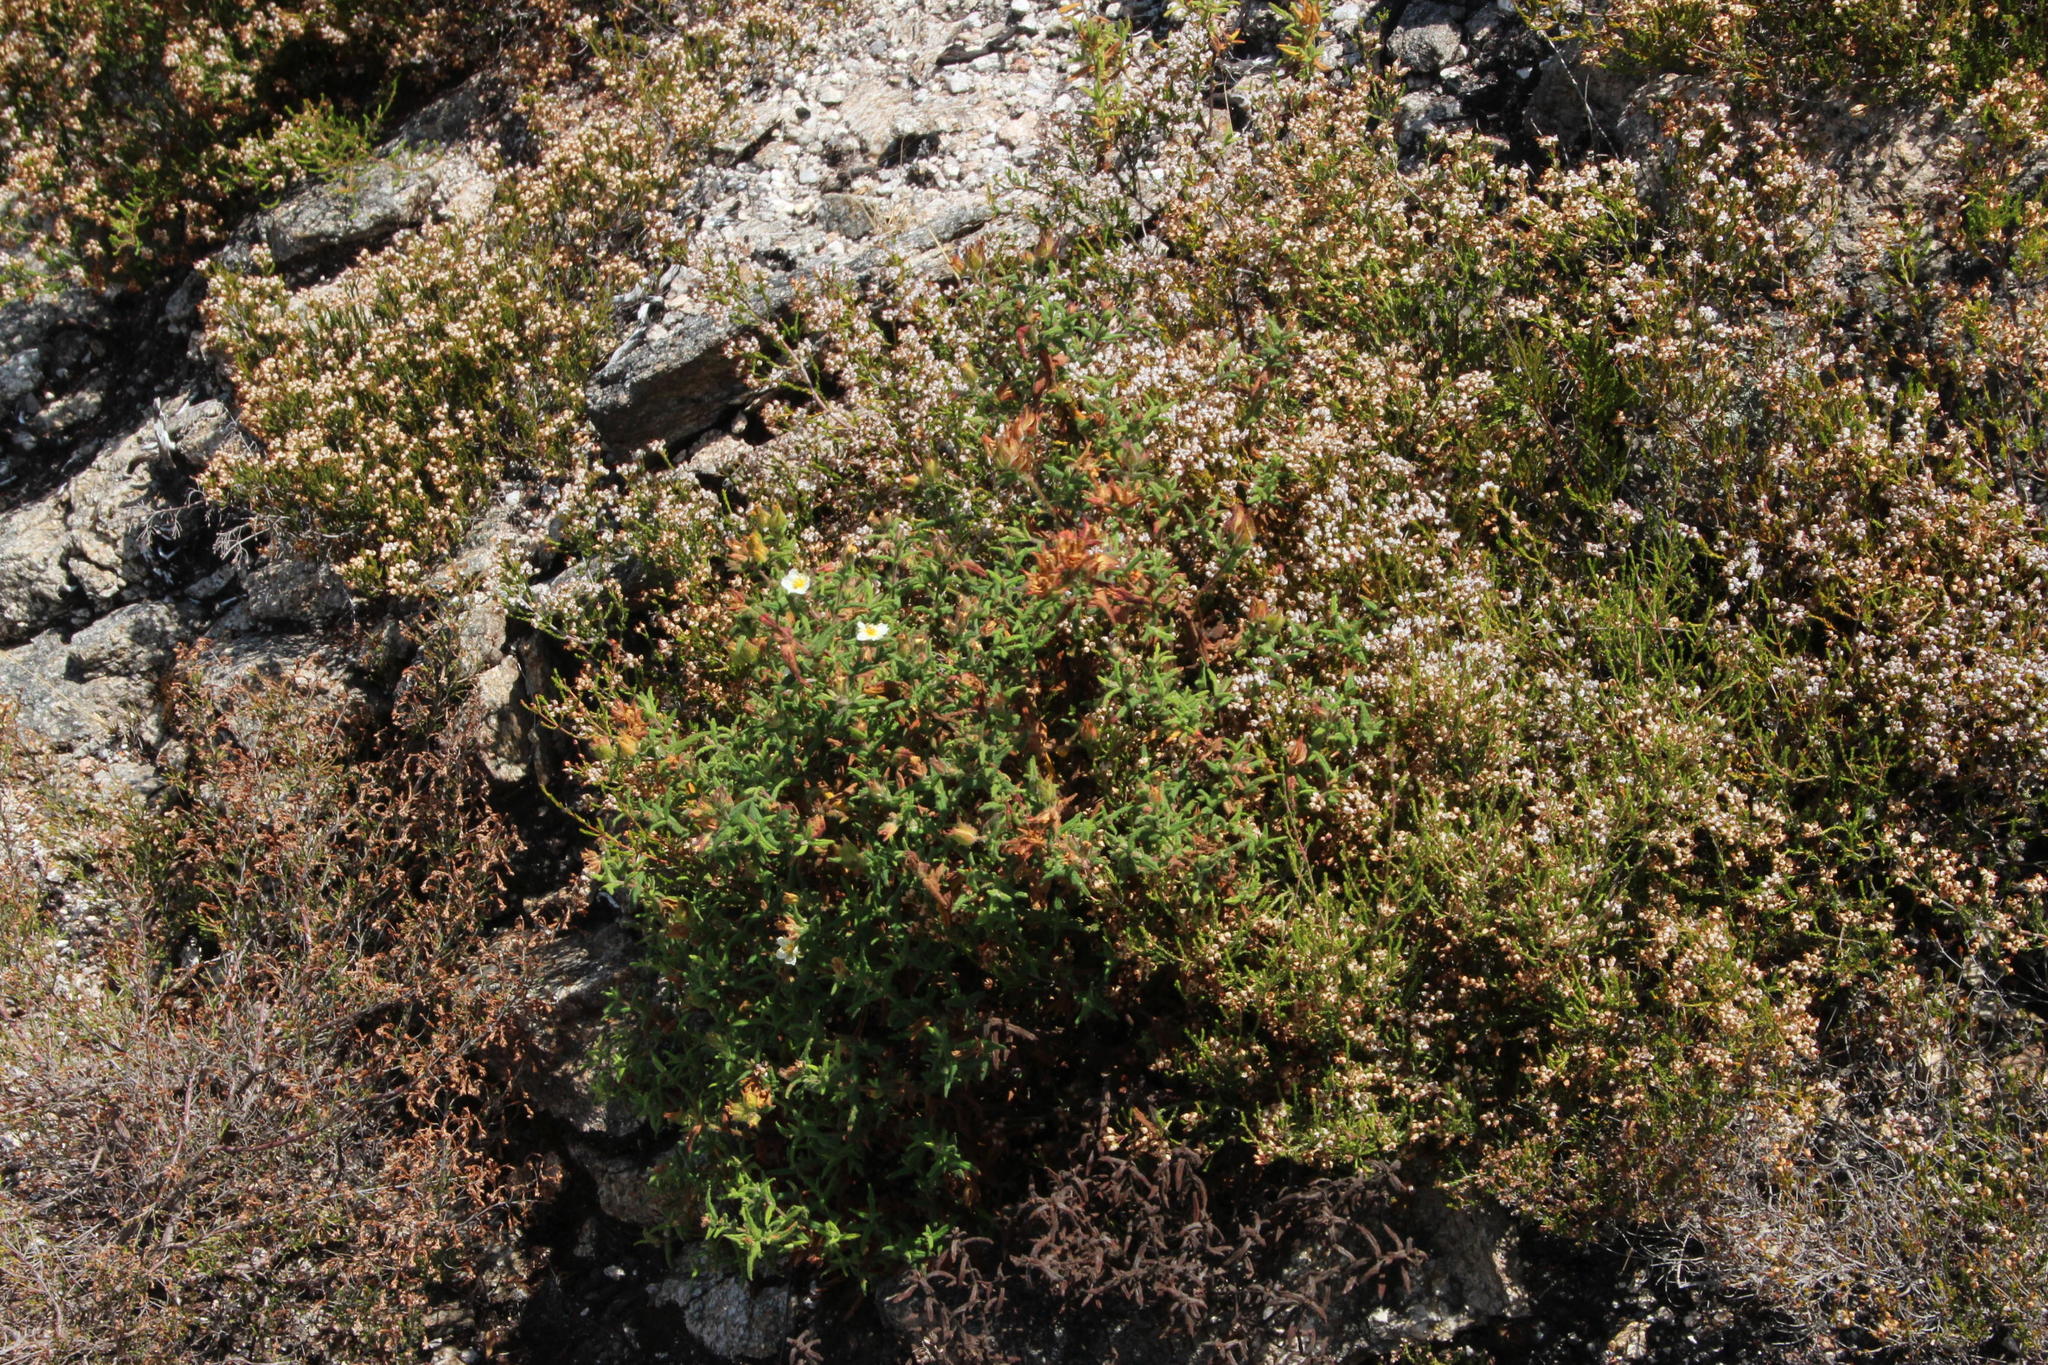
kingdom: Plantae
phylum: Tracheophyta
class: Magnoliopsida
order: Malvales
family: Cistaceae
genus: Cistus
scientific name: Cistus inflatus
